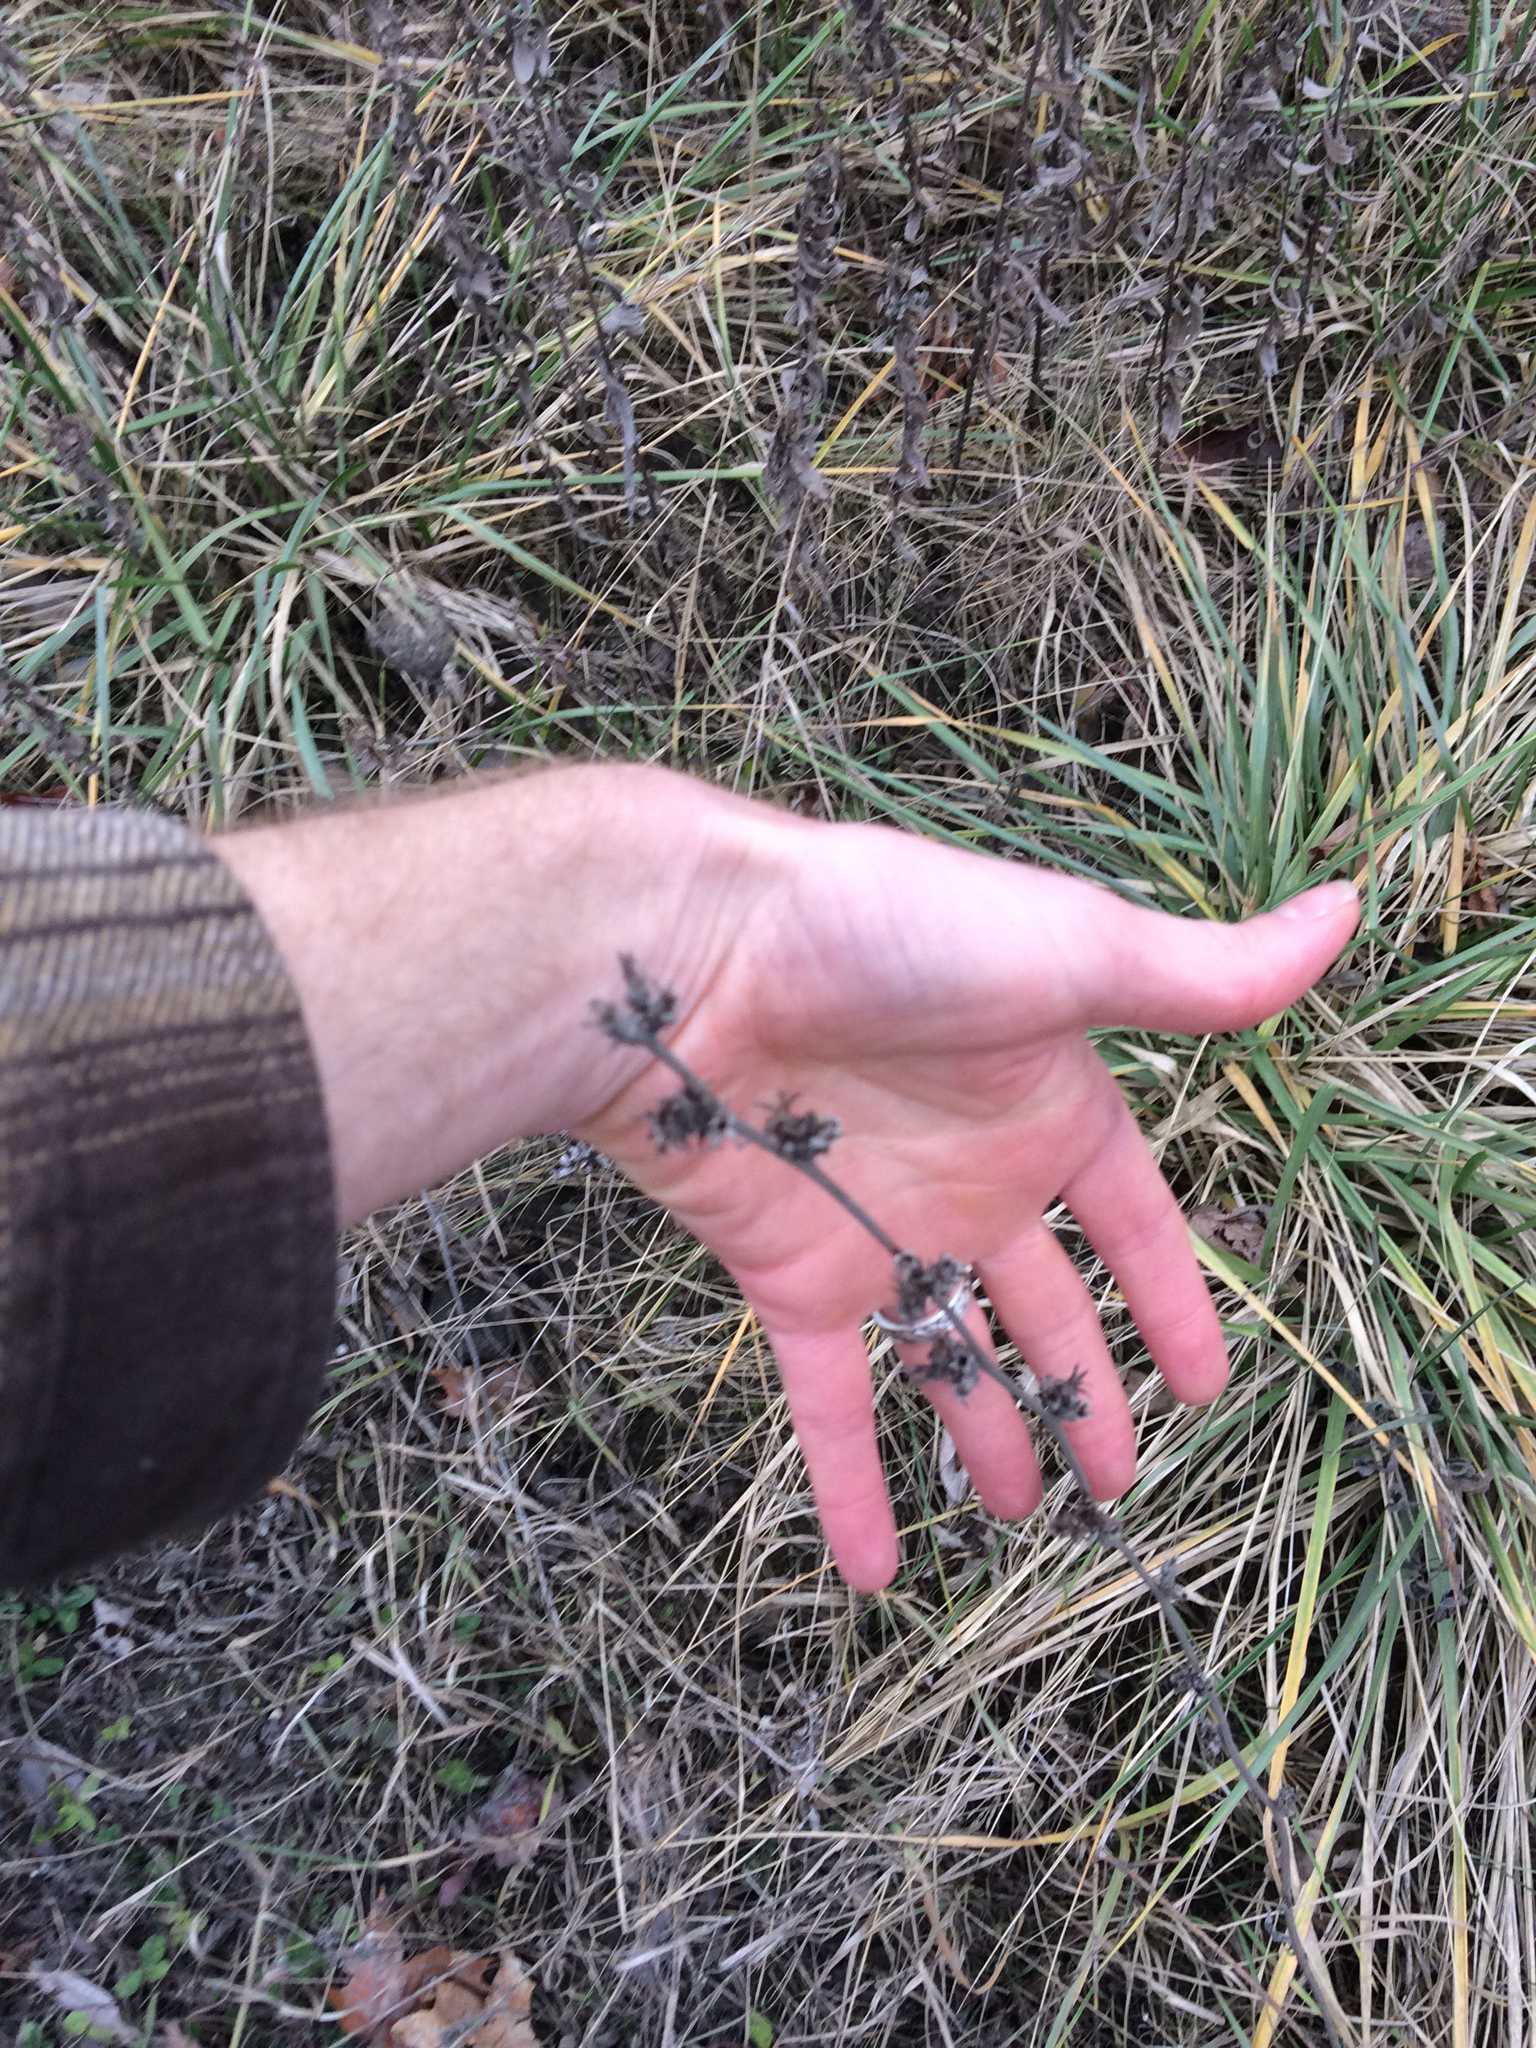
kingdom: Plantae
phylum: Tracheophyta
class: Magnoliopsida
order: Asterales
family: Asteraceae
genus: Cichorium
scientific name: Cichorium intybus
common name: Chicory
